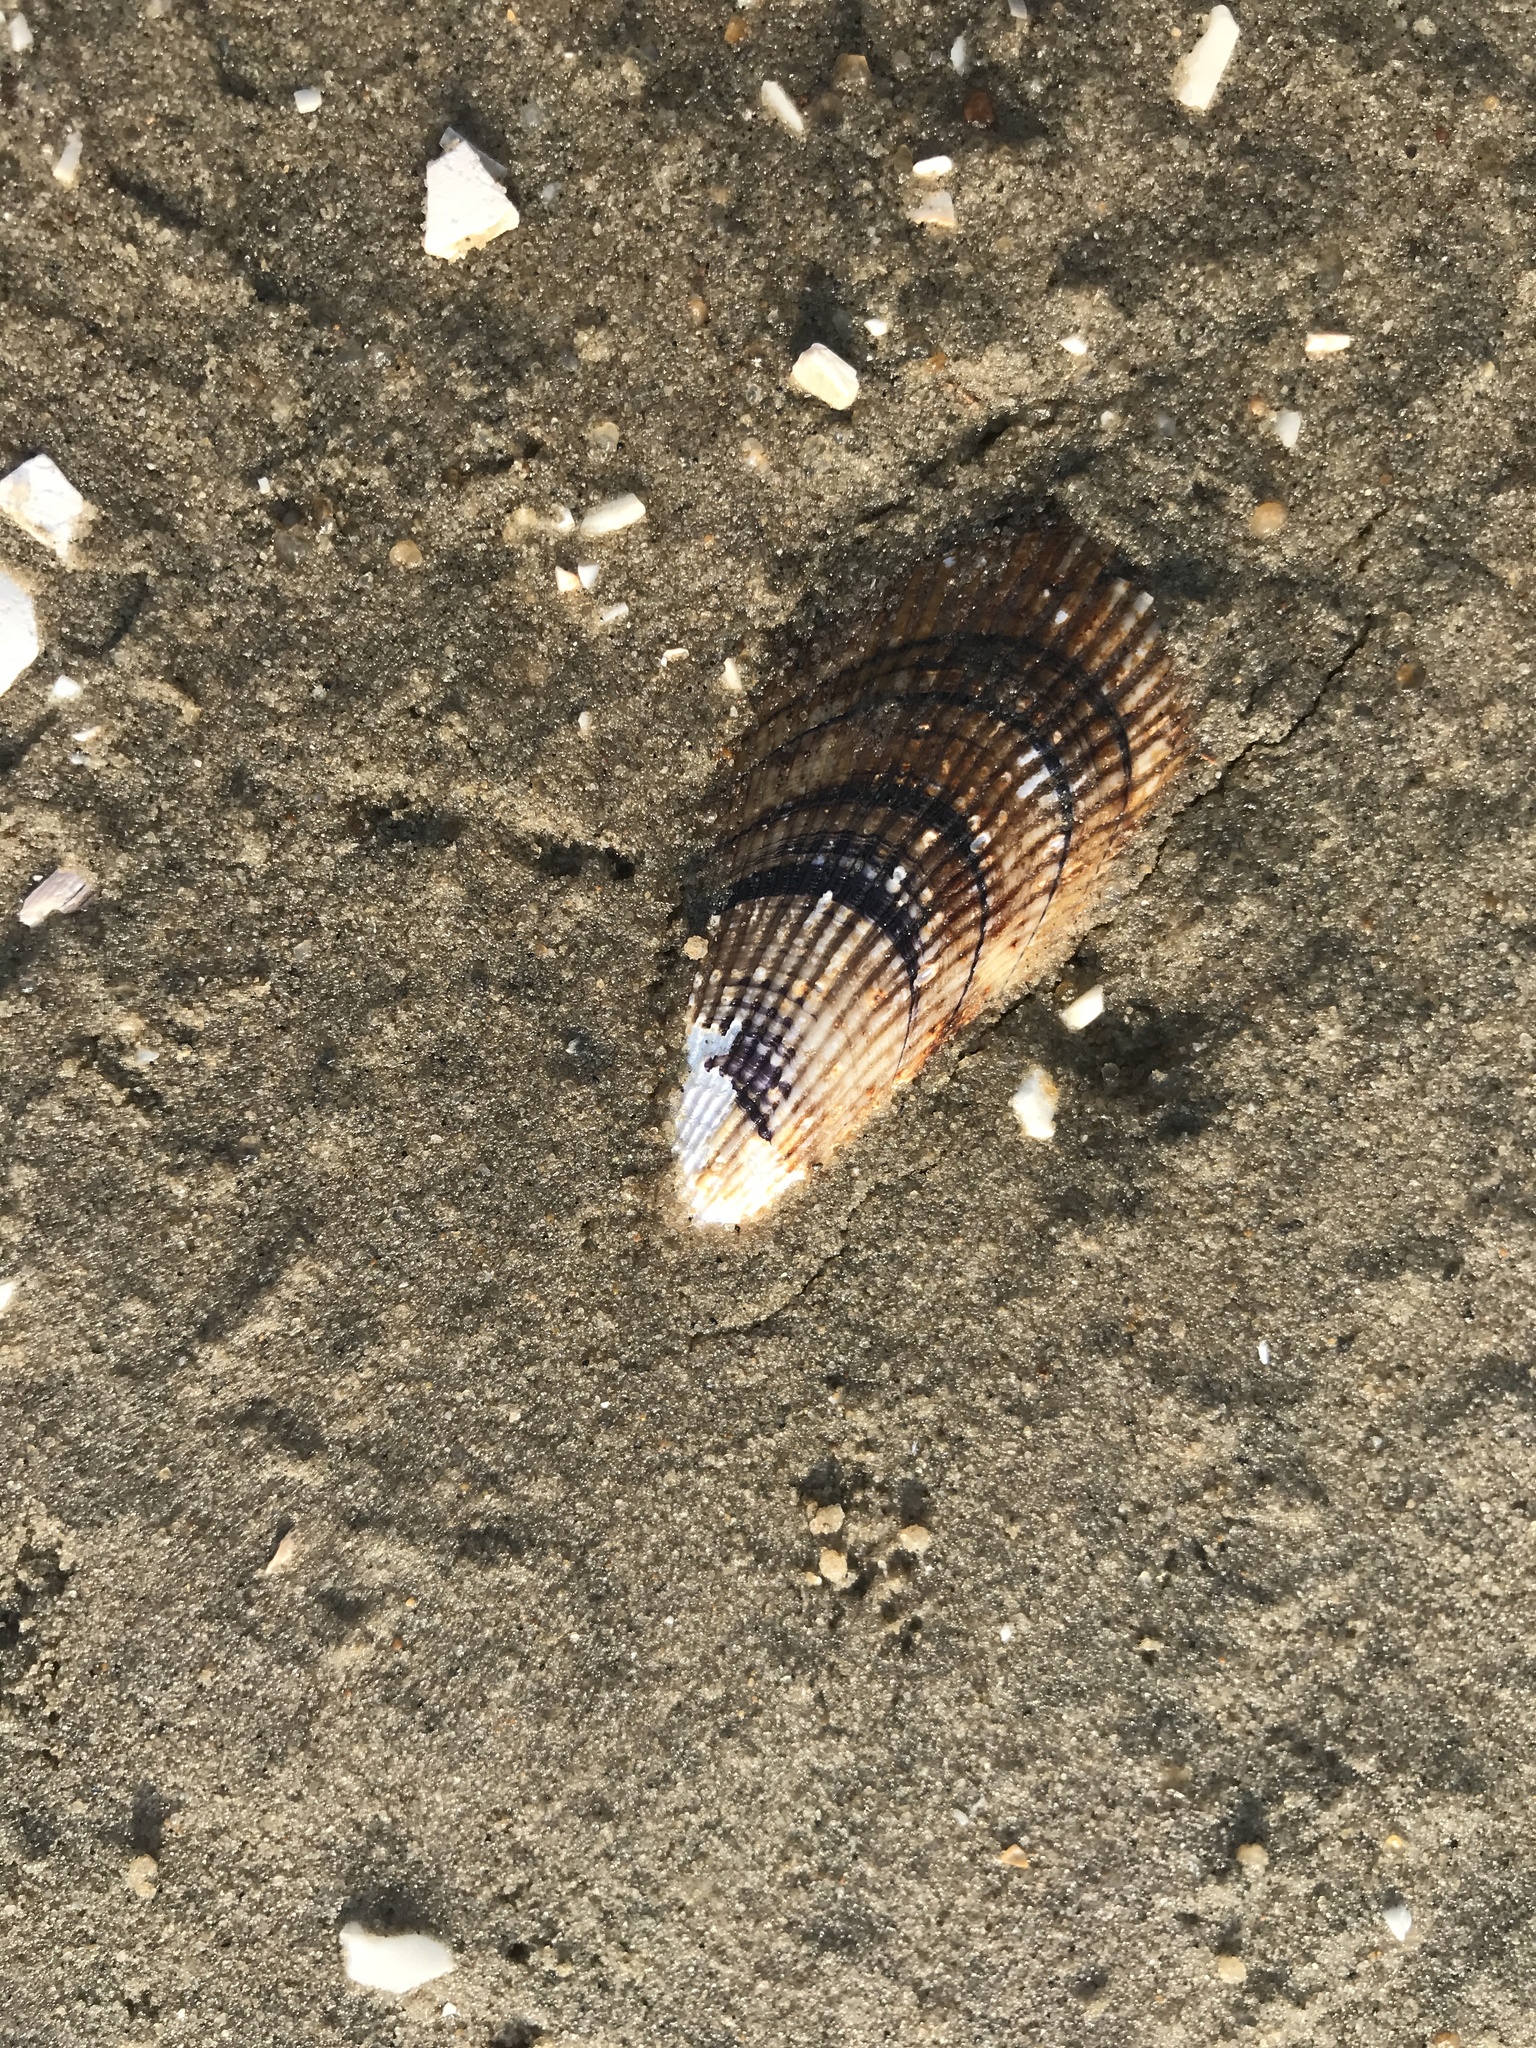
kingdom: Animalia
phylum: Mollusca
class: Bivalvia
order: Mytilida
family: Mytilidae
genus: Geukensia
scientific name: Geukensia demissa
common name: Ribbed mussel
